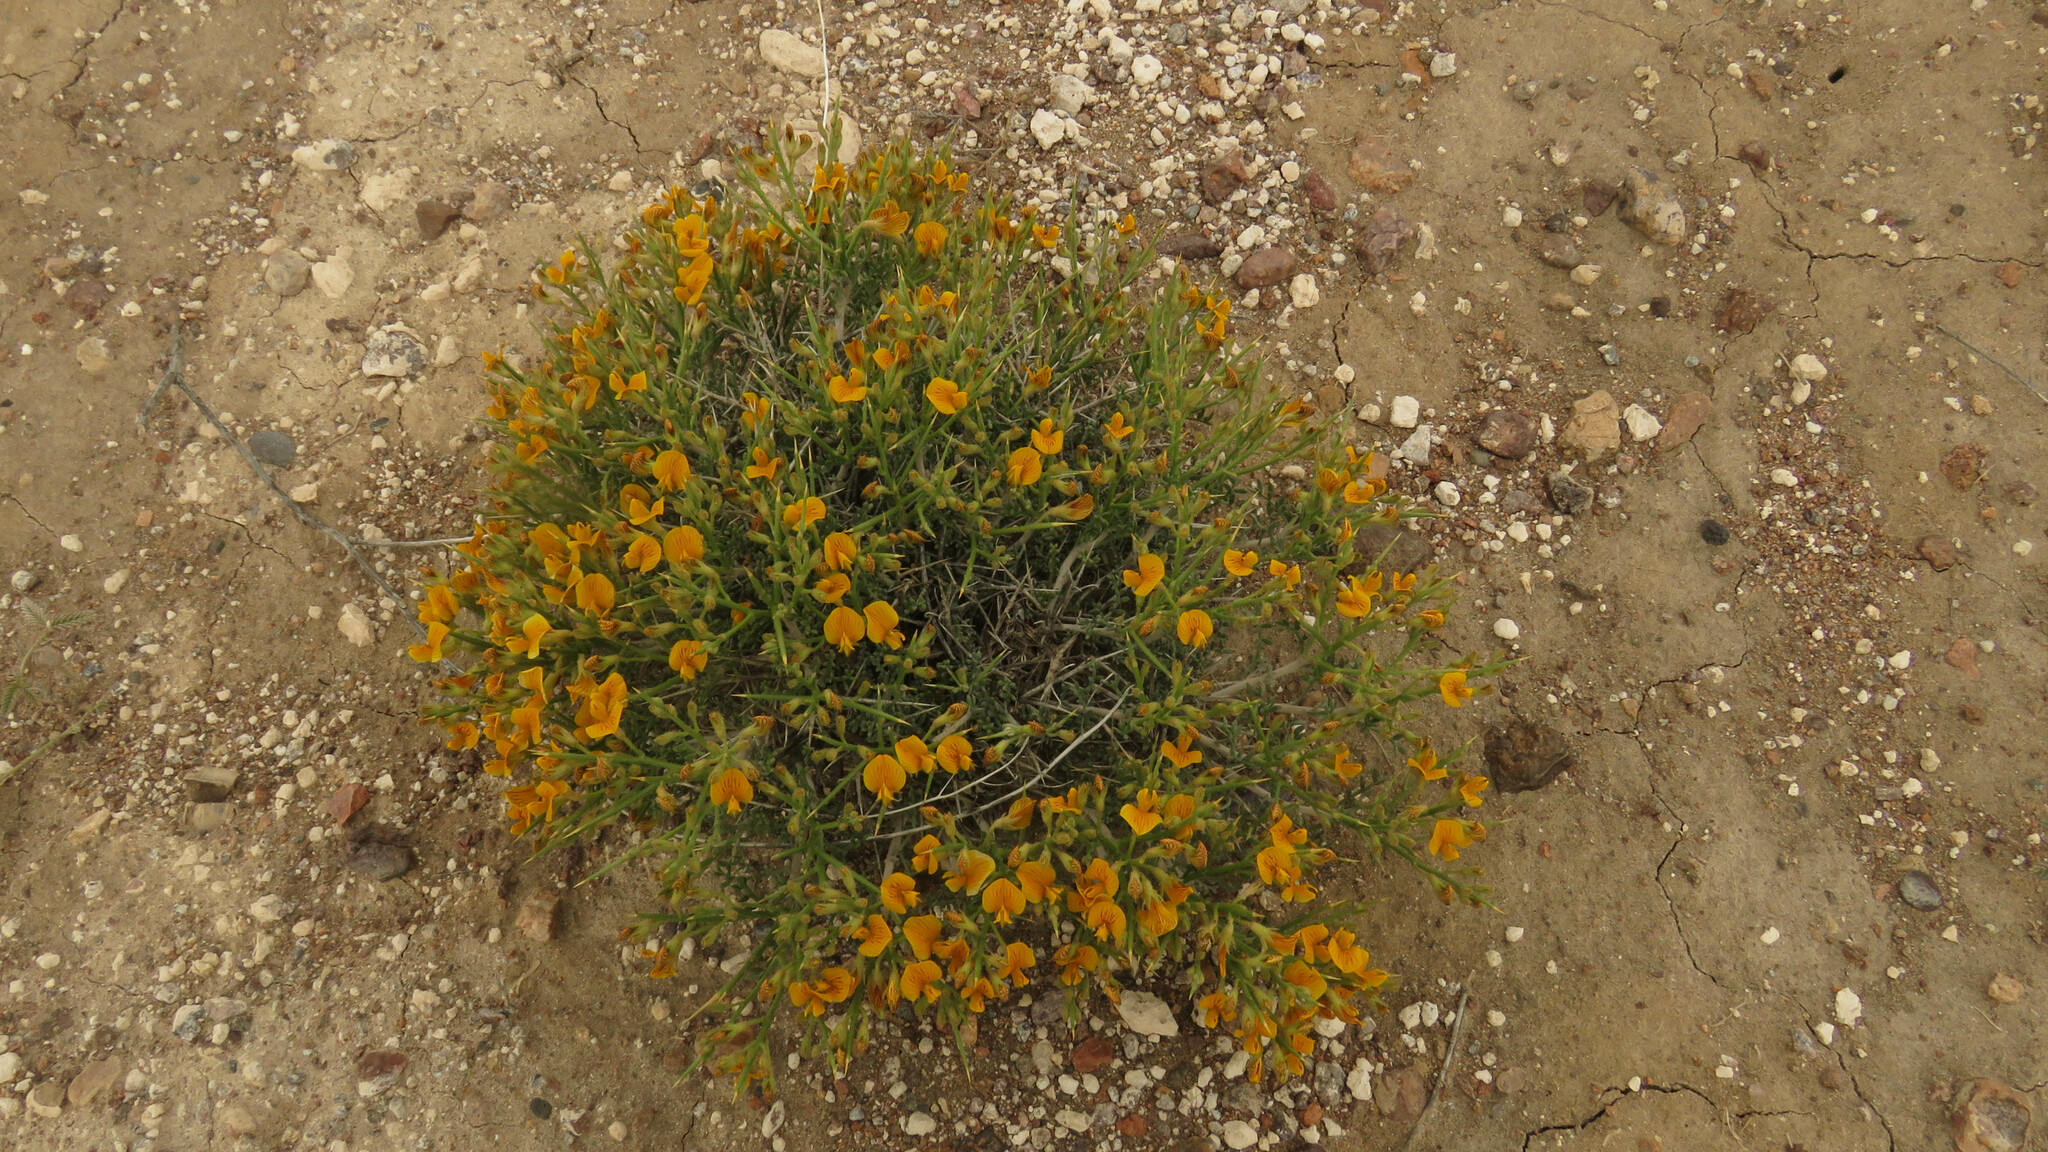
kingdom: Plantae
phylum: Tracheophyta
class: Magnoliopsida
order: Fabales
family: Fabaceae
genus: Adesmia
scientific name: Adesmia patagonica
